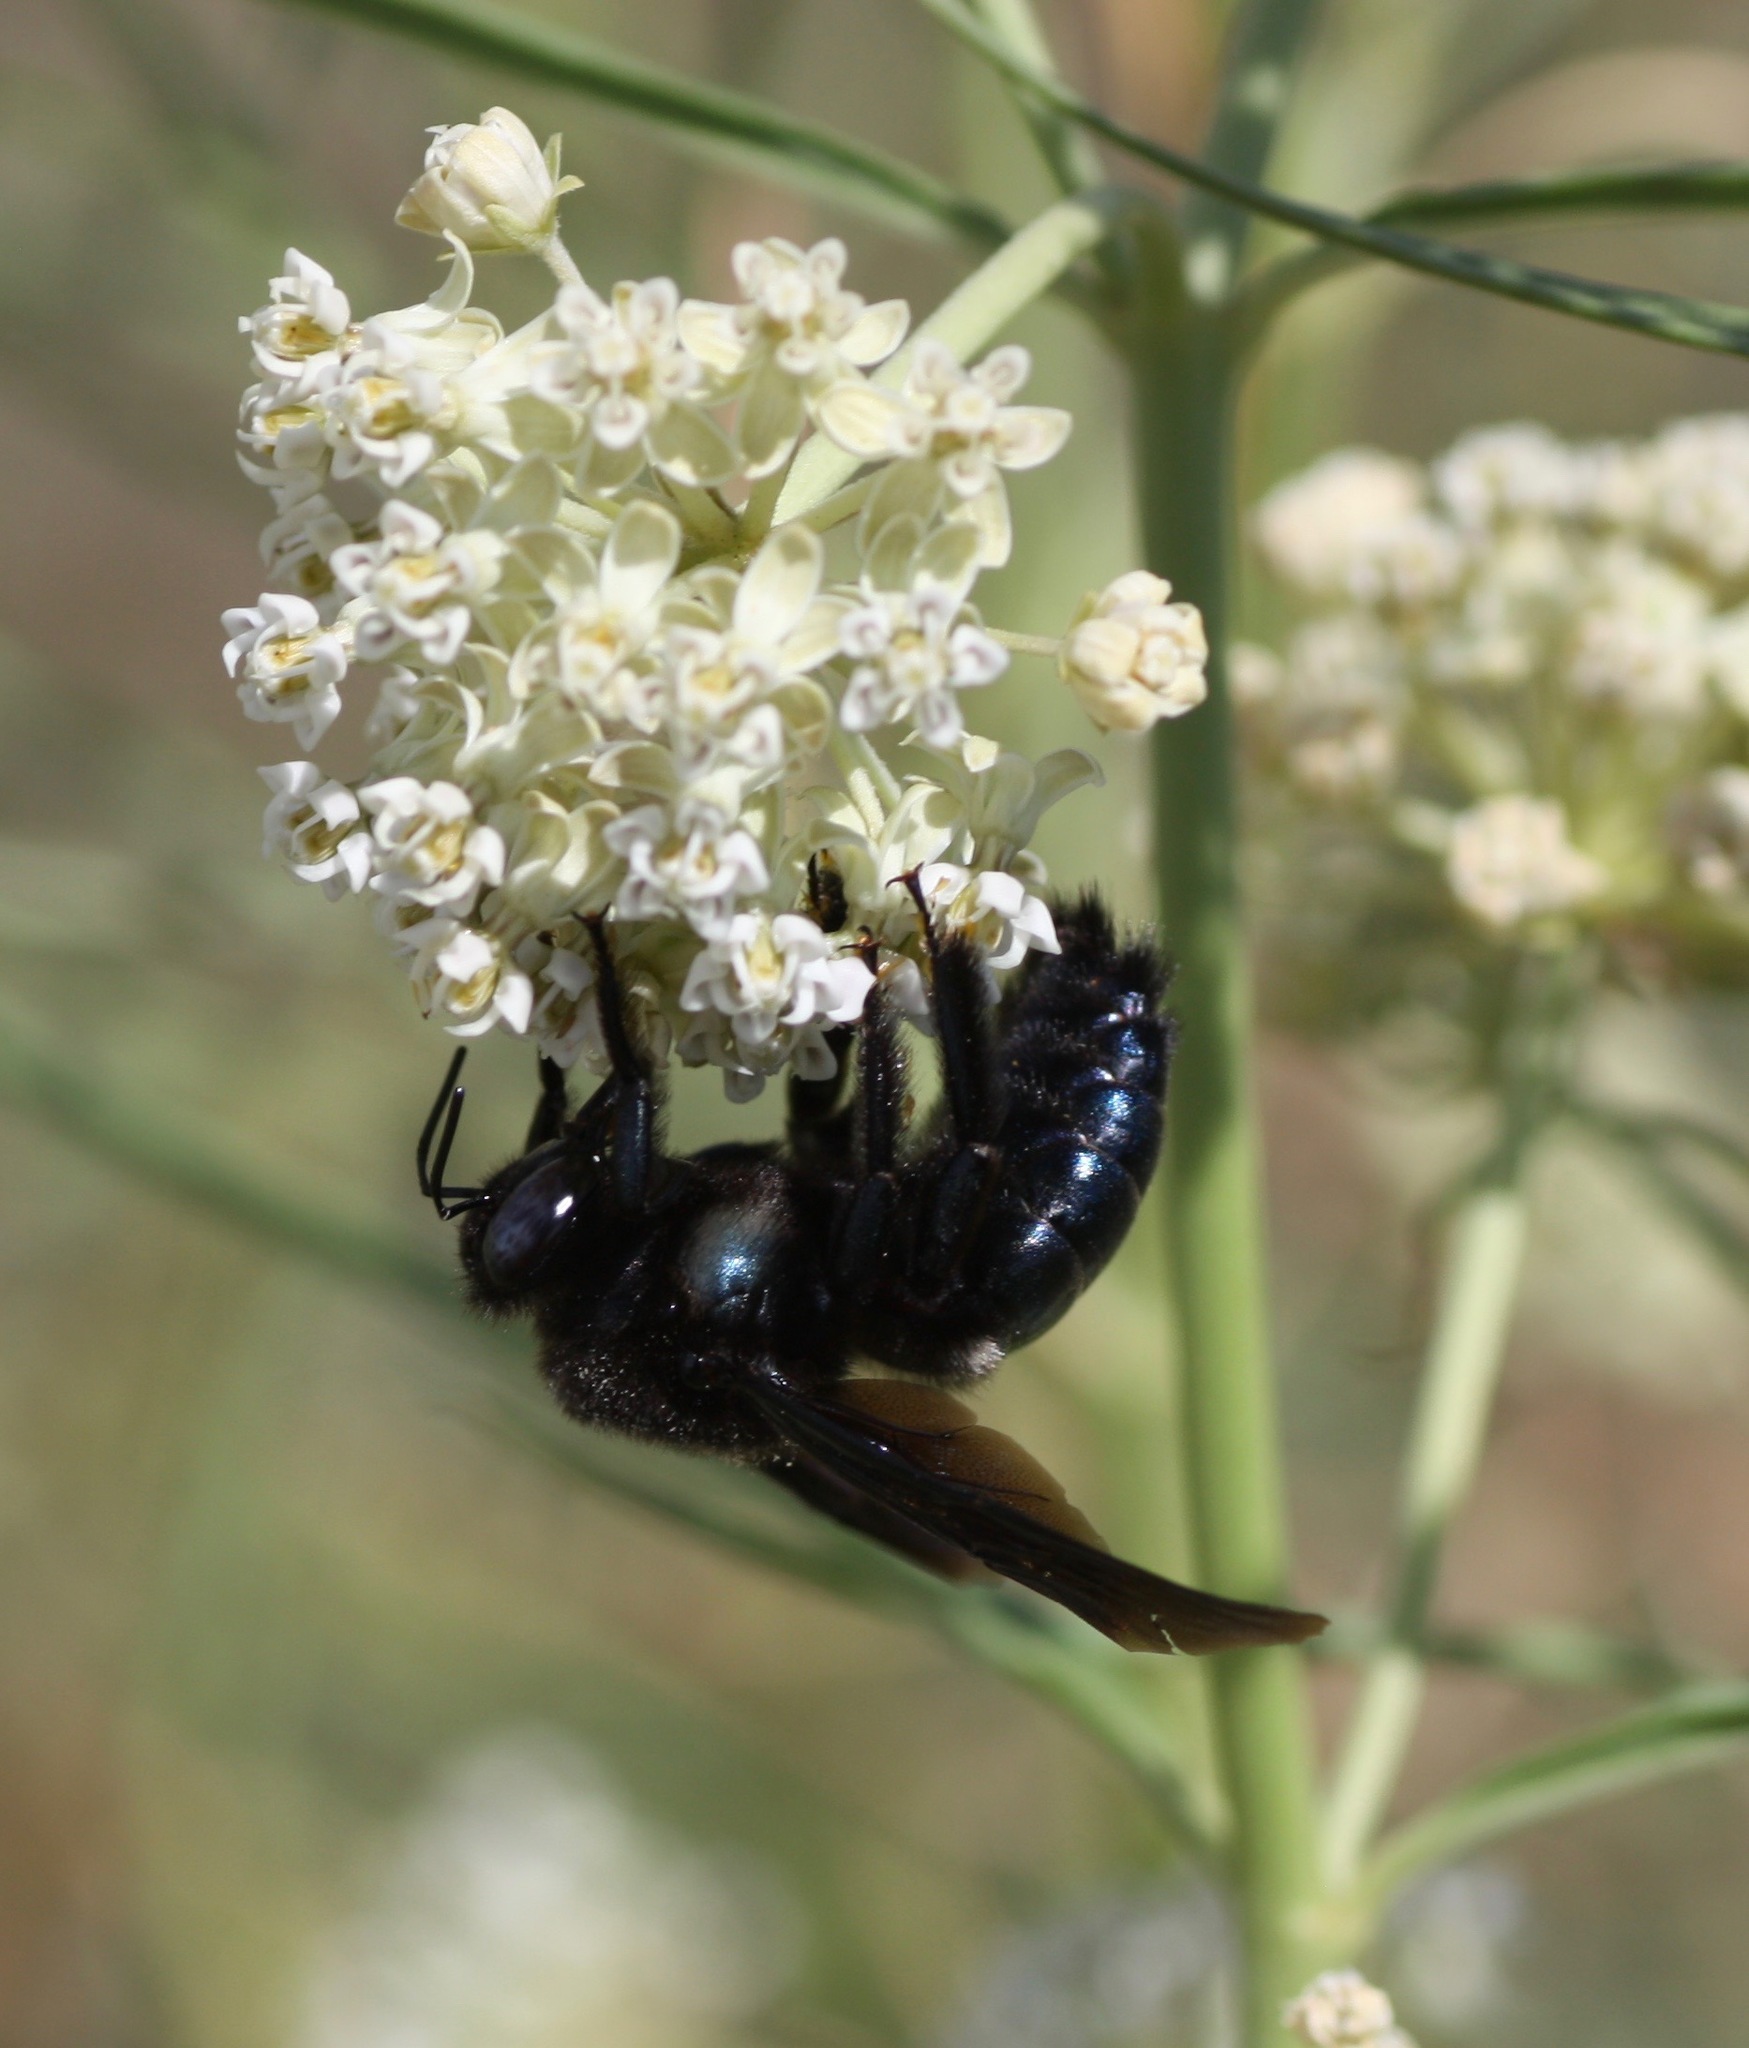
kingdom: Animalia
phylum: Arthropoda
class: Insecta
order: Hymenoptera
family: Apidae
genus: Xylocopa
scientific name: Xylocopa californica
